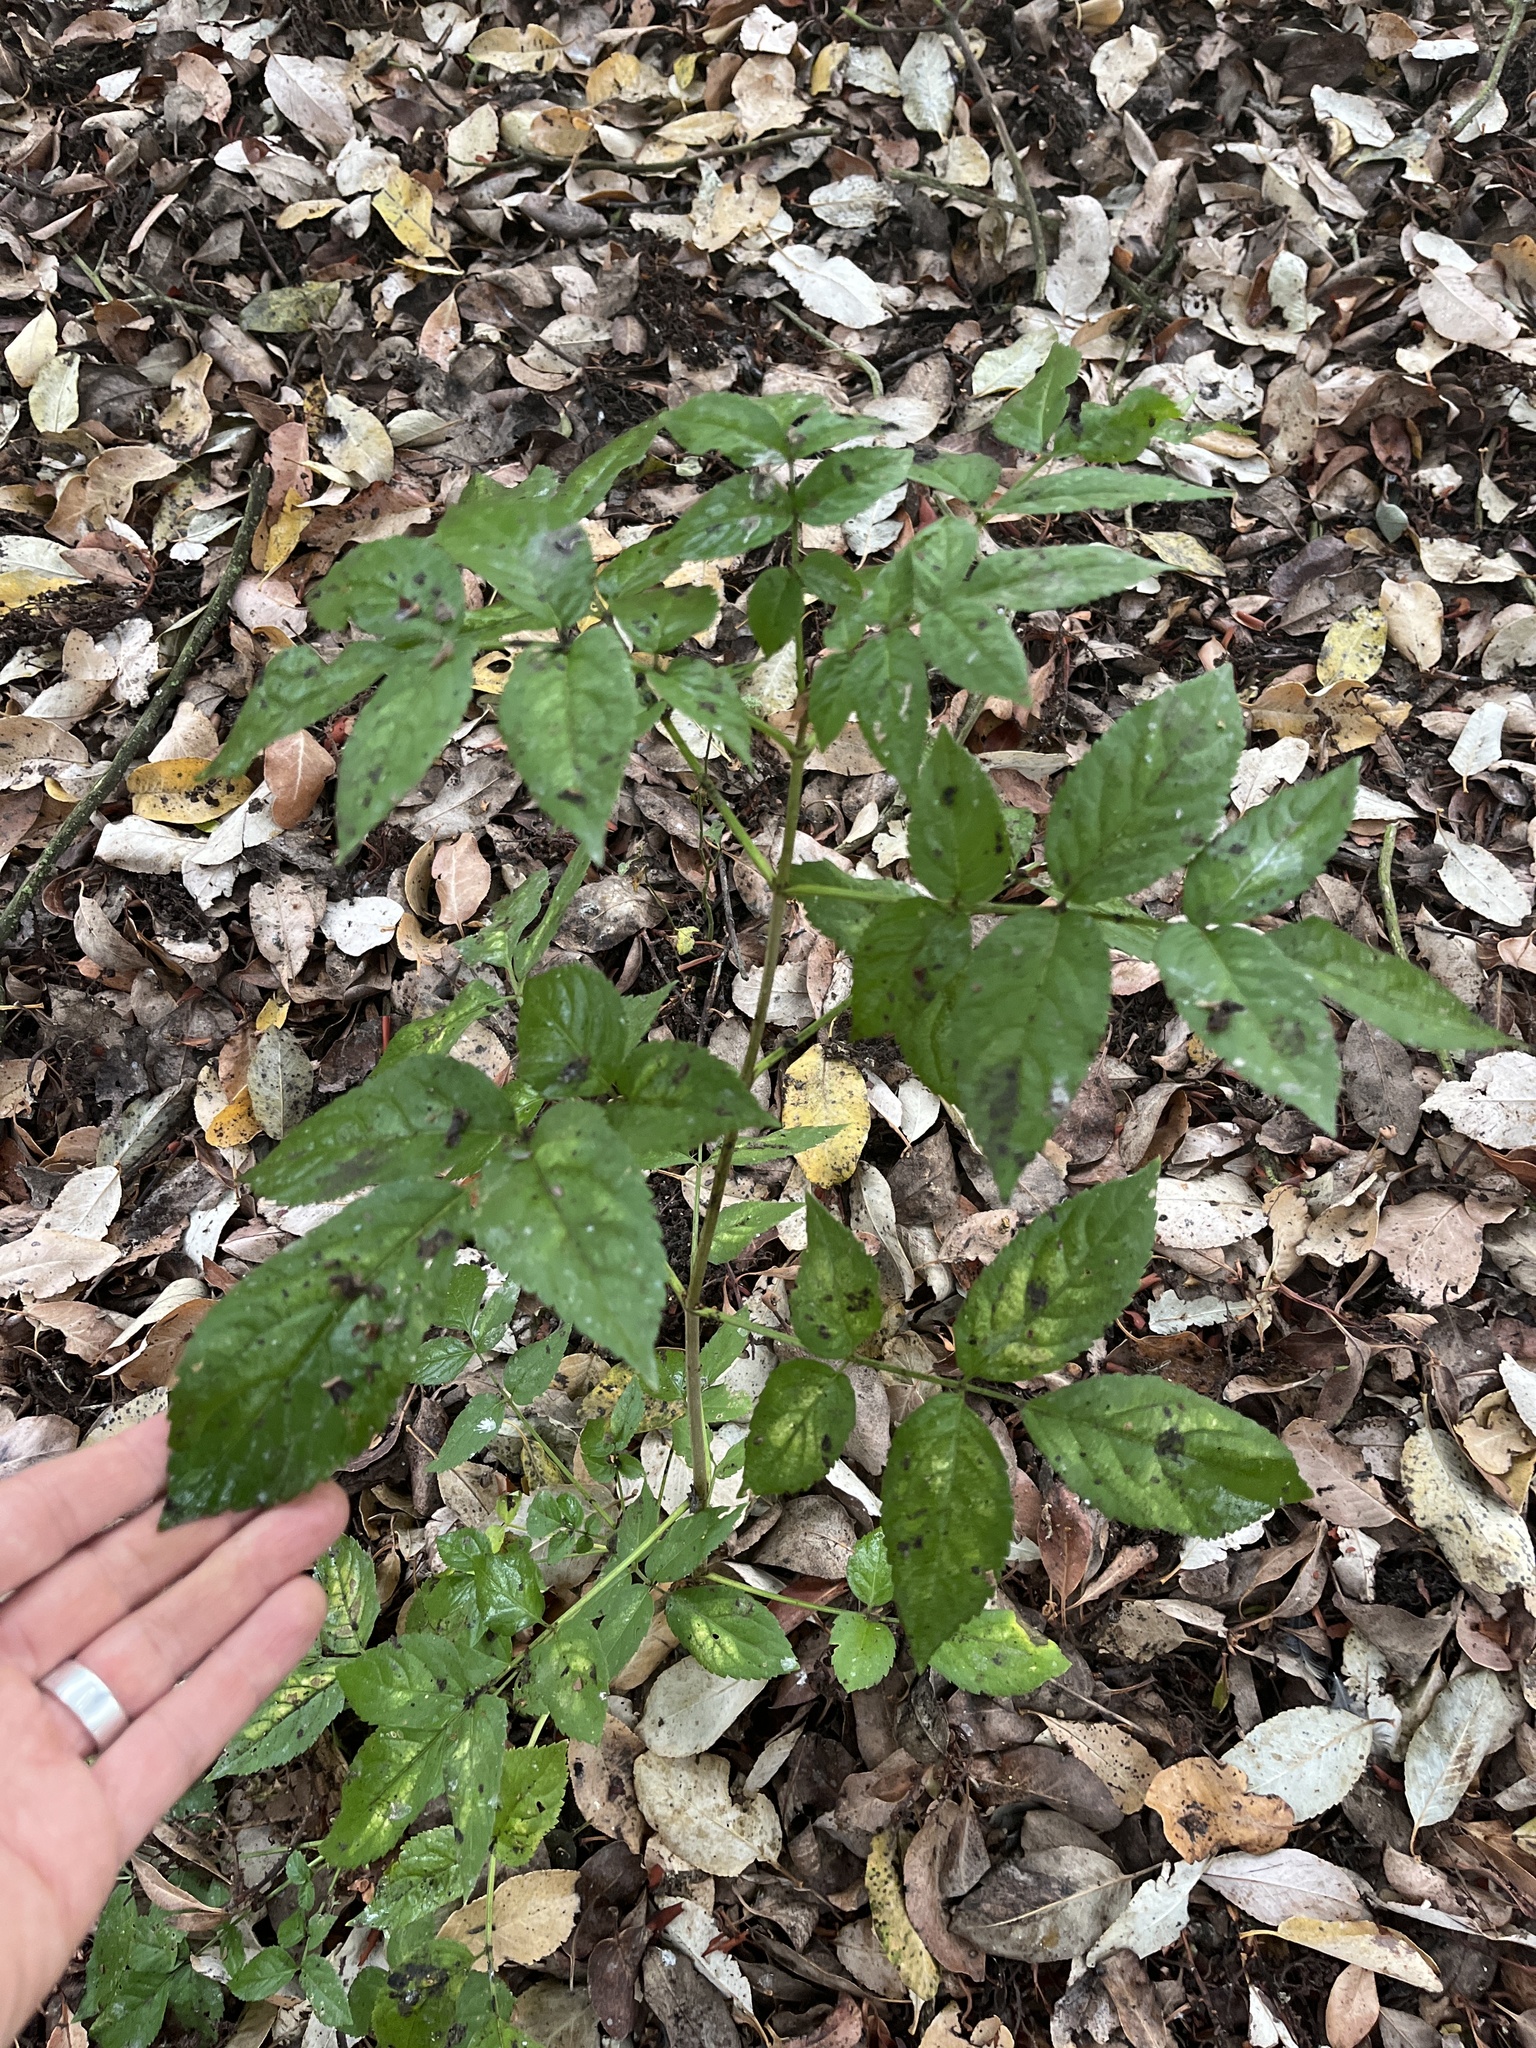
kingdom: Plantae
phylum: Tracheophyta
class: Magnoliopsida
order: Dipsacales
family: Viburnaceae
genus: Sambucus
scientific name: Sambucus nigra
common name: Elder
